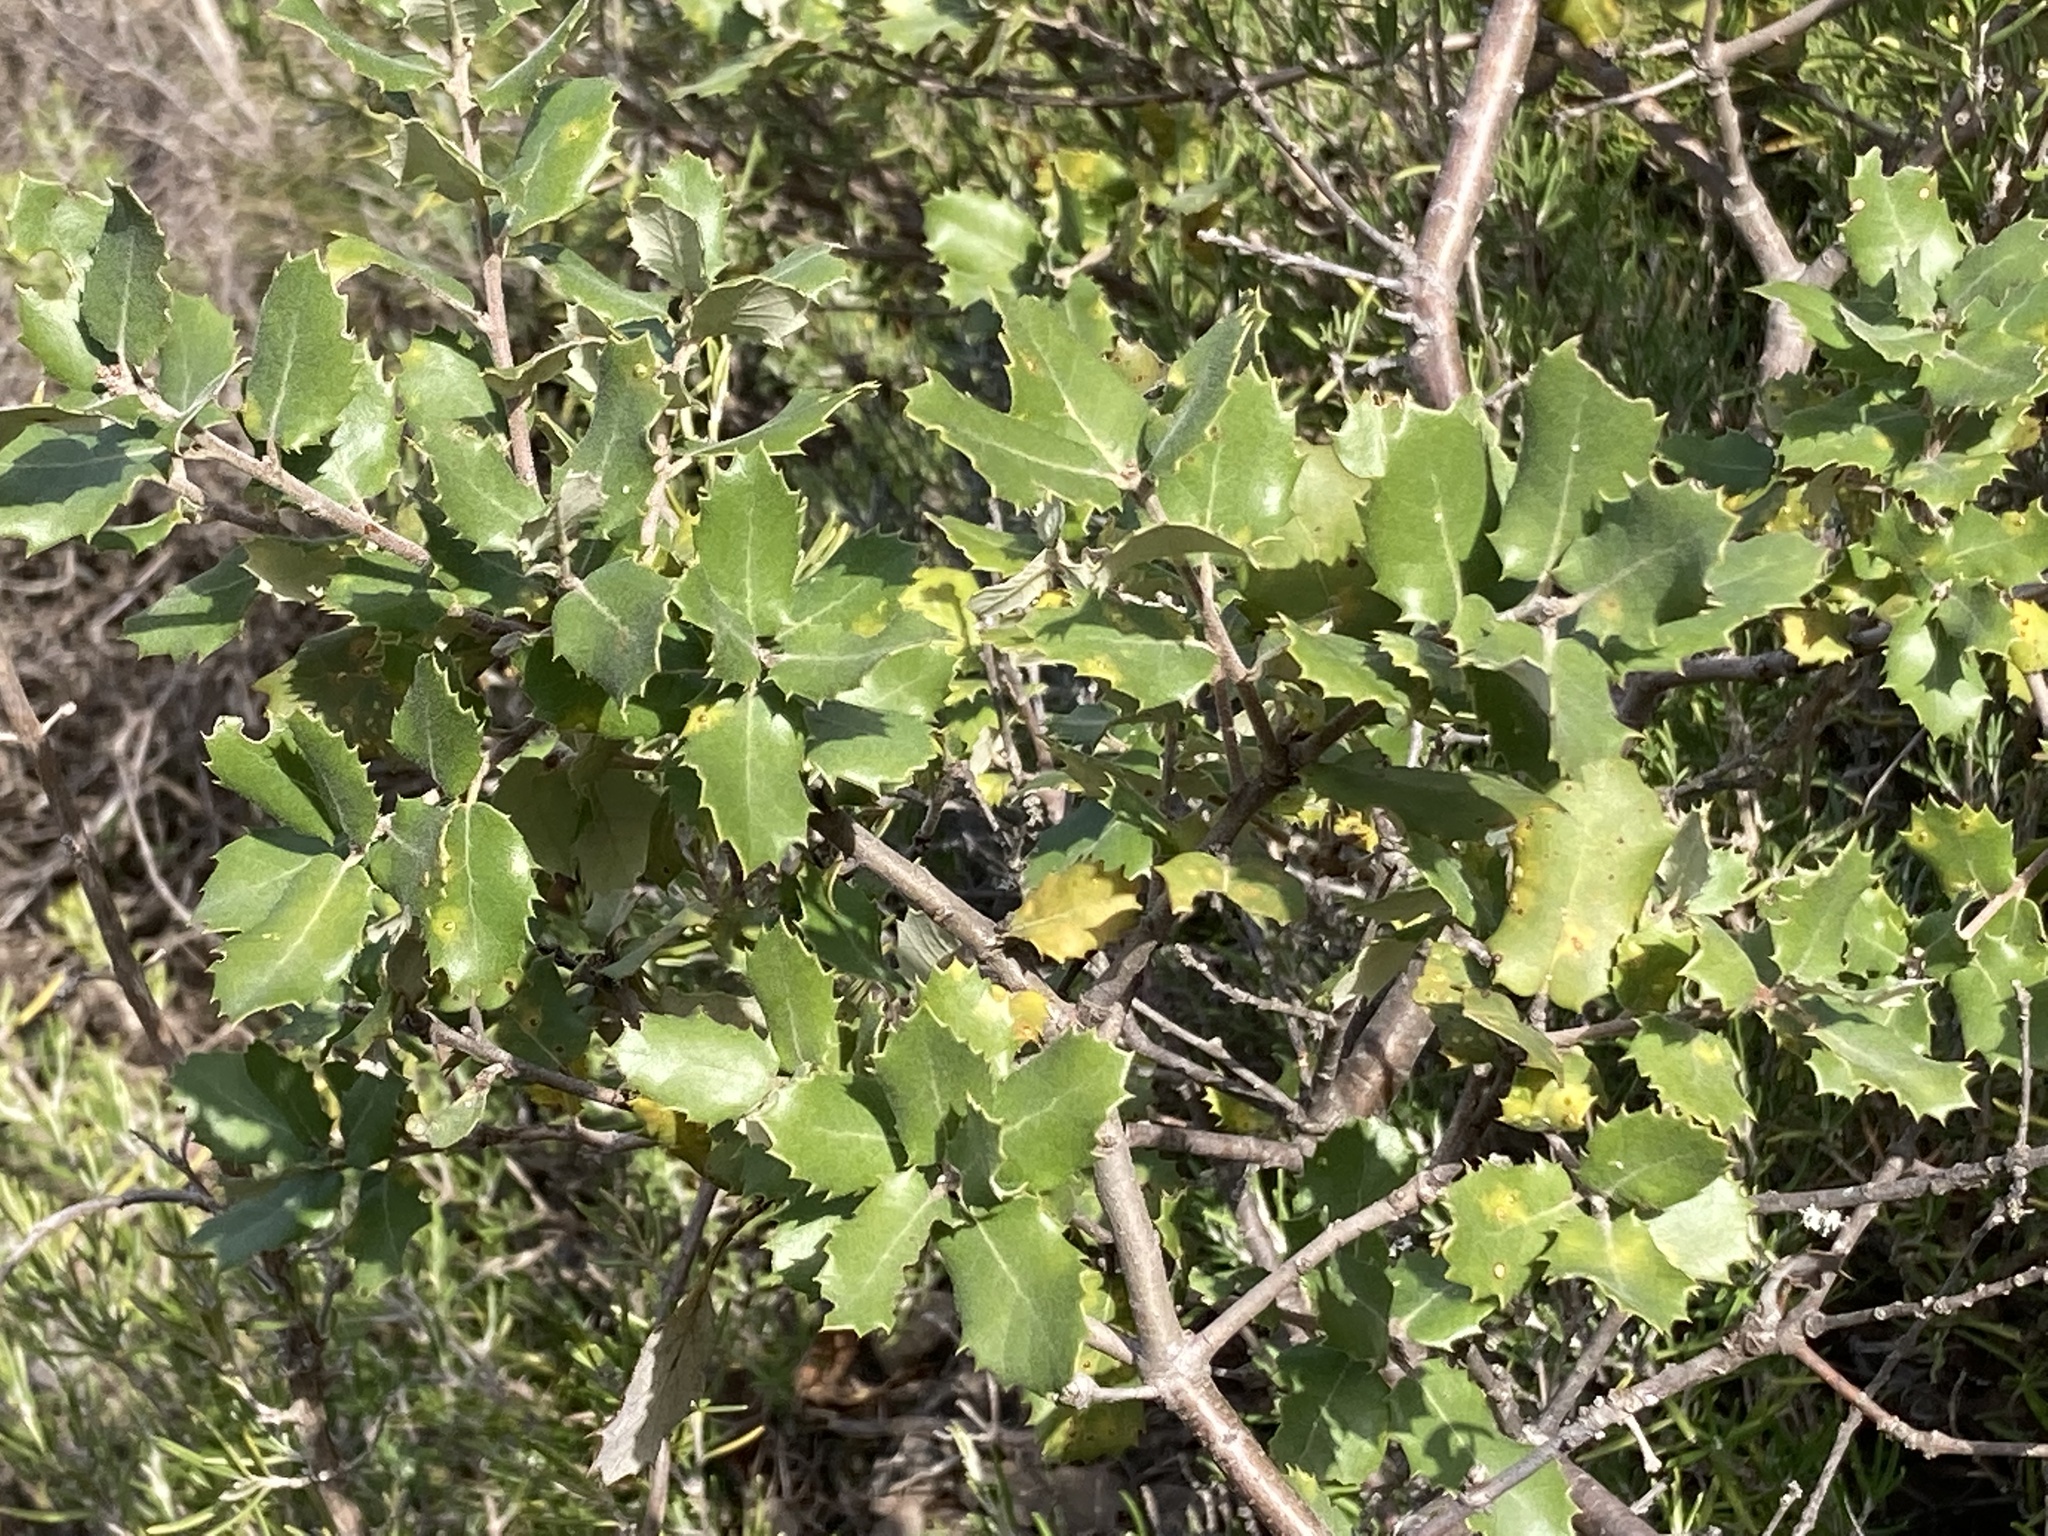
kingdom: Plantae
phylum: Tracheophyta
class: Magnoliopsida
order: Fagales
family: Fagaceae
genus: Quercus
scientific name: Quercus rotundifolia
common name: Holm oak
